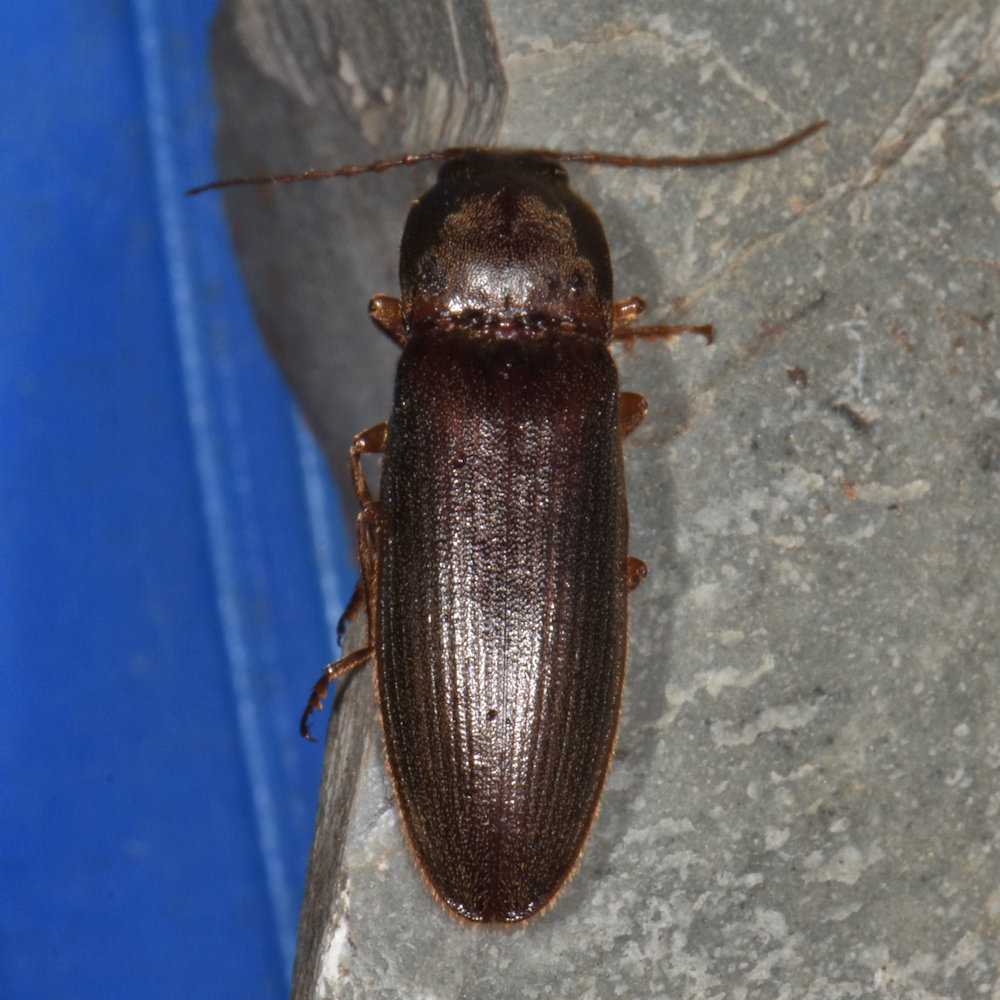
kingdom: Animalia
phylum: Arthropoda
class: Insecta
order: Coleoptera
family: Elateridae
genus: Hemicrepidius
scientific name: Hemicrepidius
